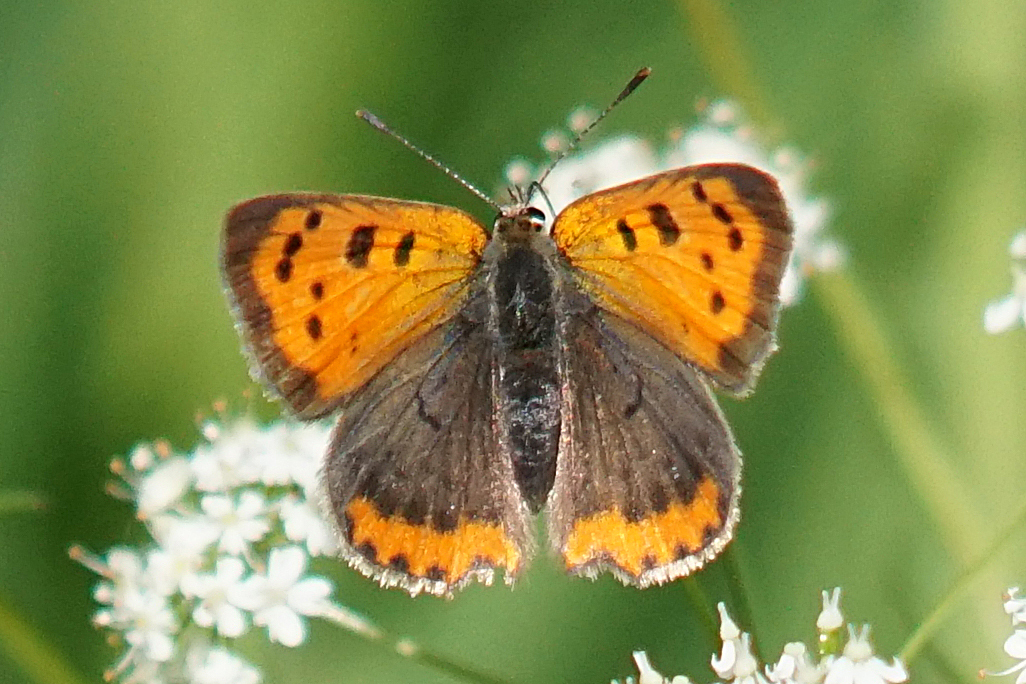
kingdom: Animalia
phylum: Arthropoda
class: Insecta
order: Lepidoptera
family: Lycaenidae
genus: Lycaena
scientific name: Lycaena phlaeas
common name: Small copper
